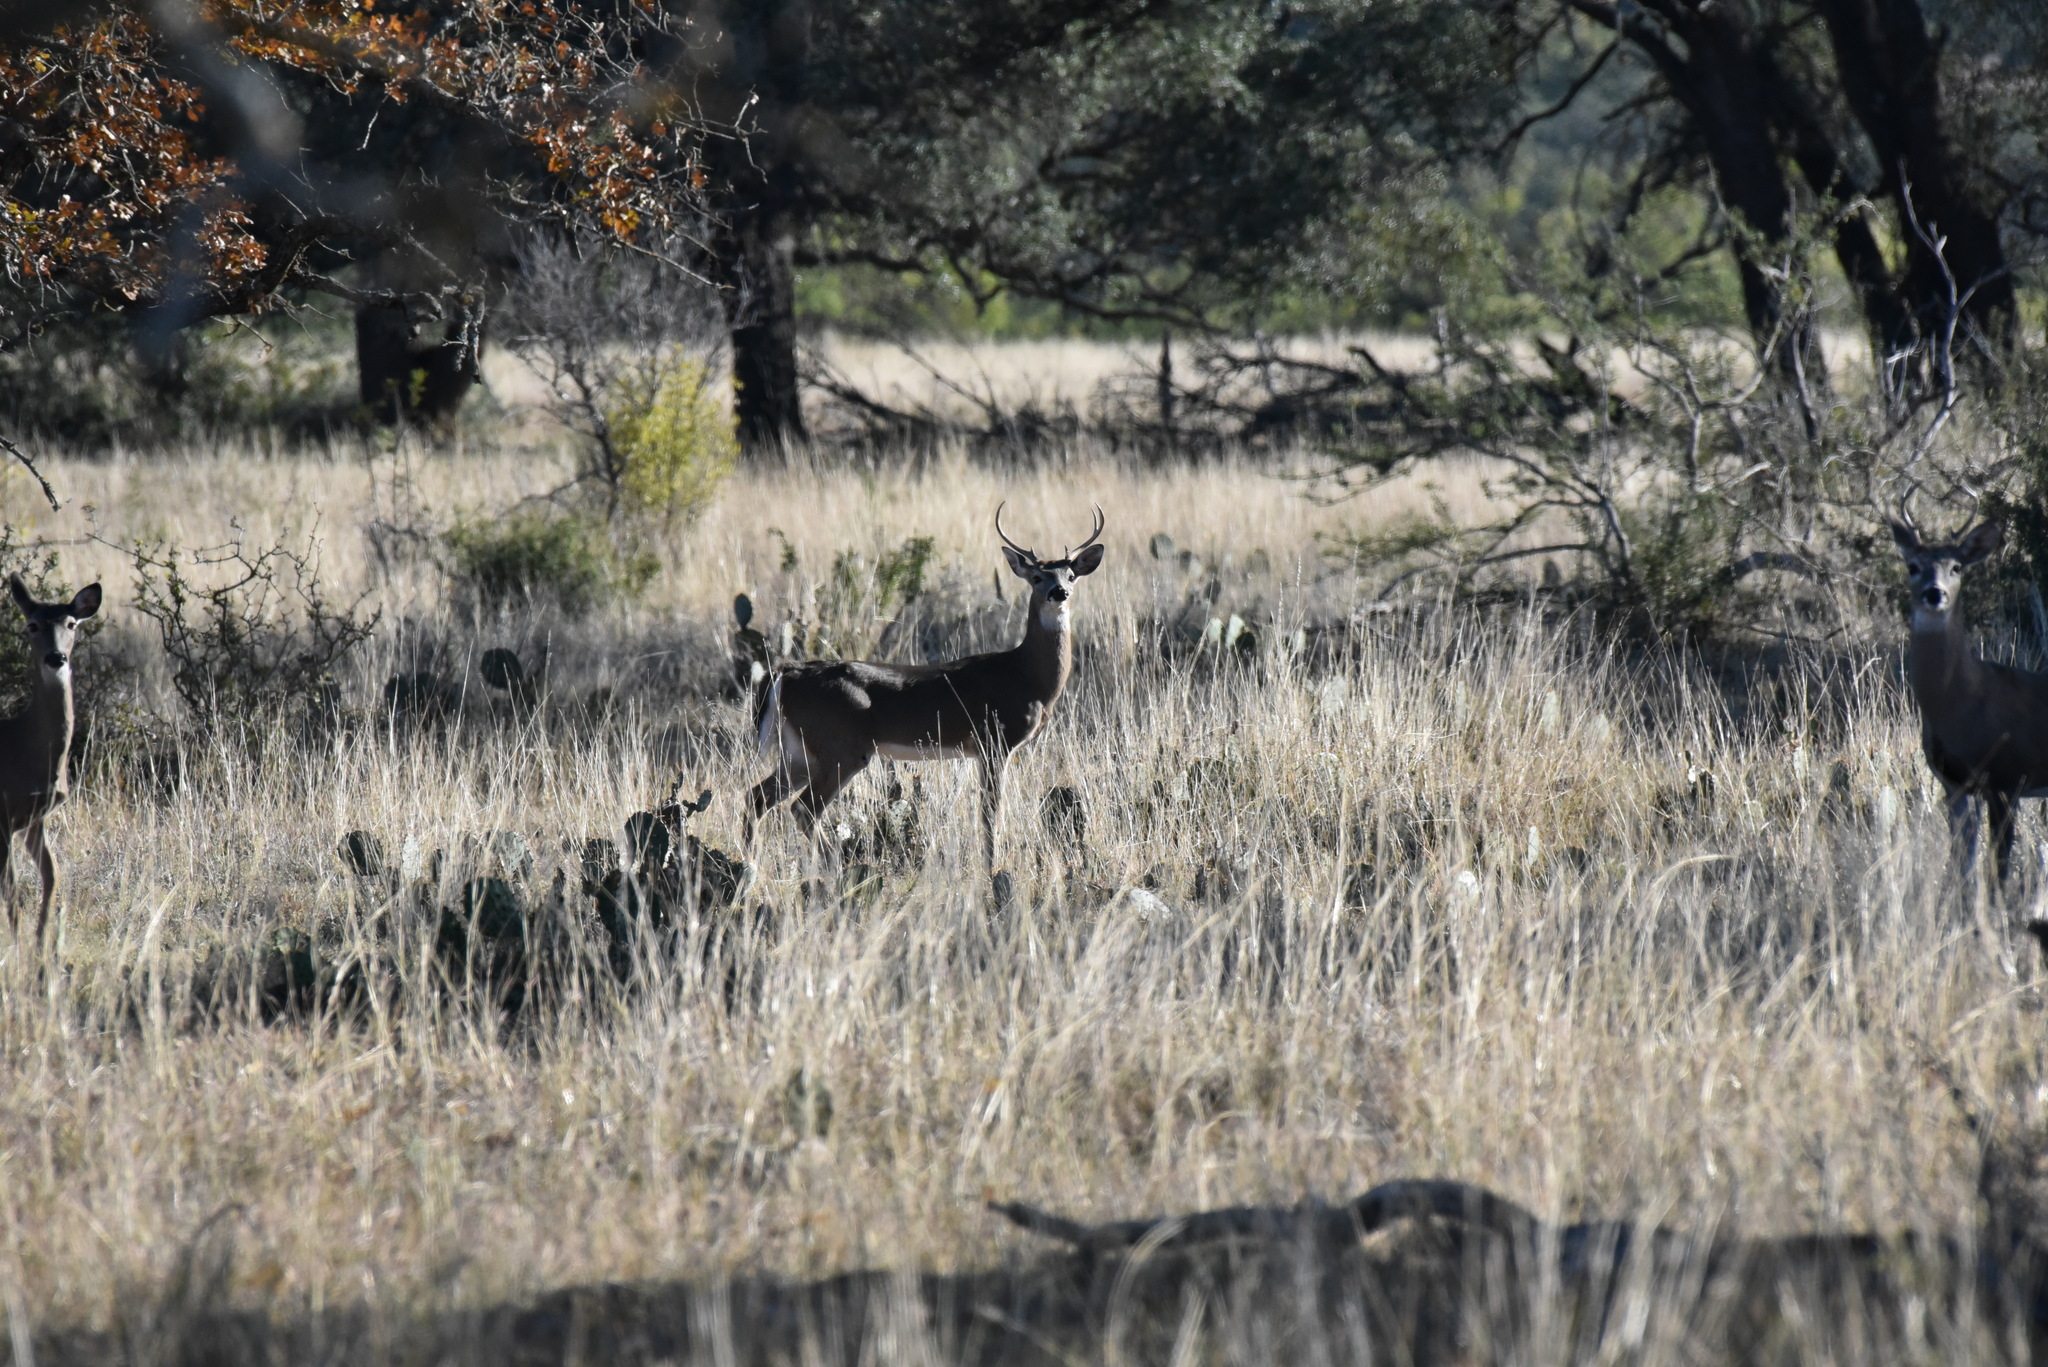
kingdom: Animalia
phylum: Chordata
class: Mammalia
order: Artiodactyla
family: Cervidae
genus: Odocoileus
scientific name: Odocoileus virginianus
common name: White-tailed deer
